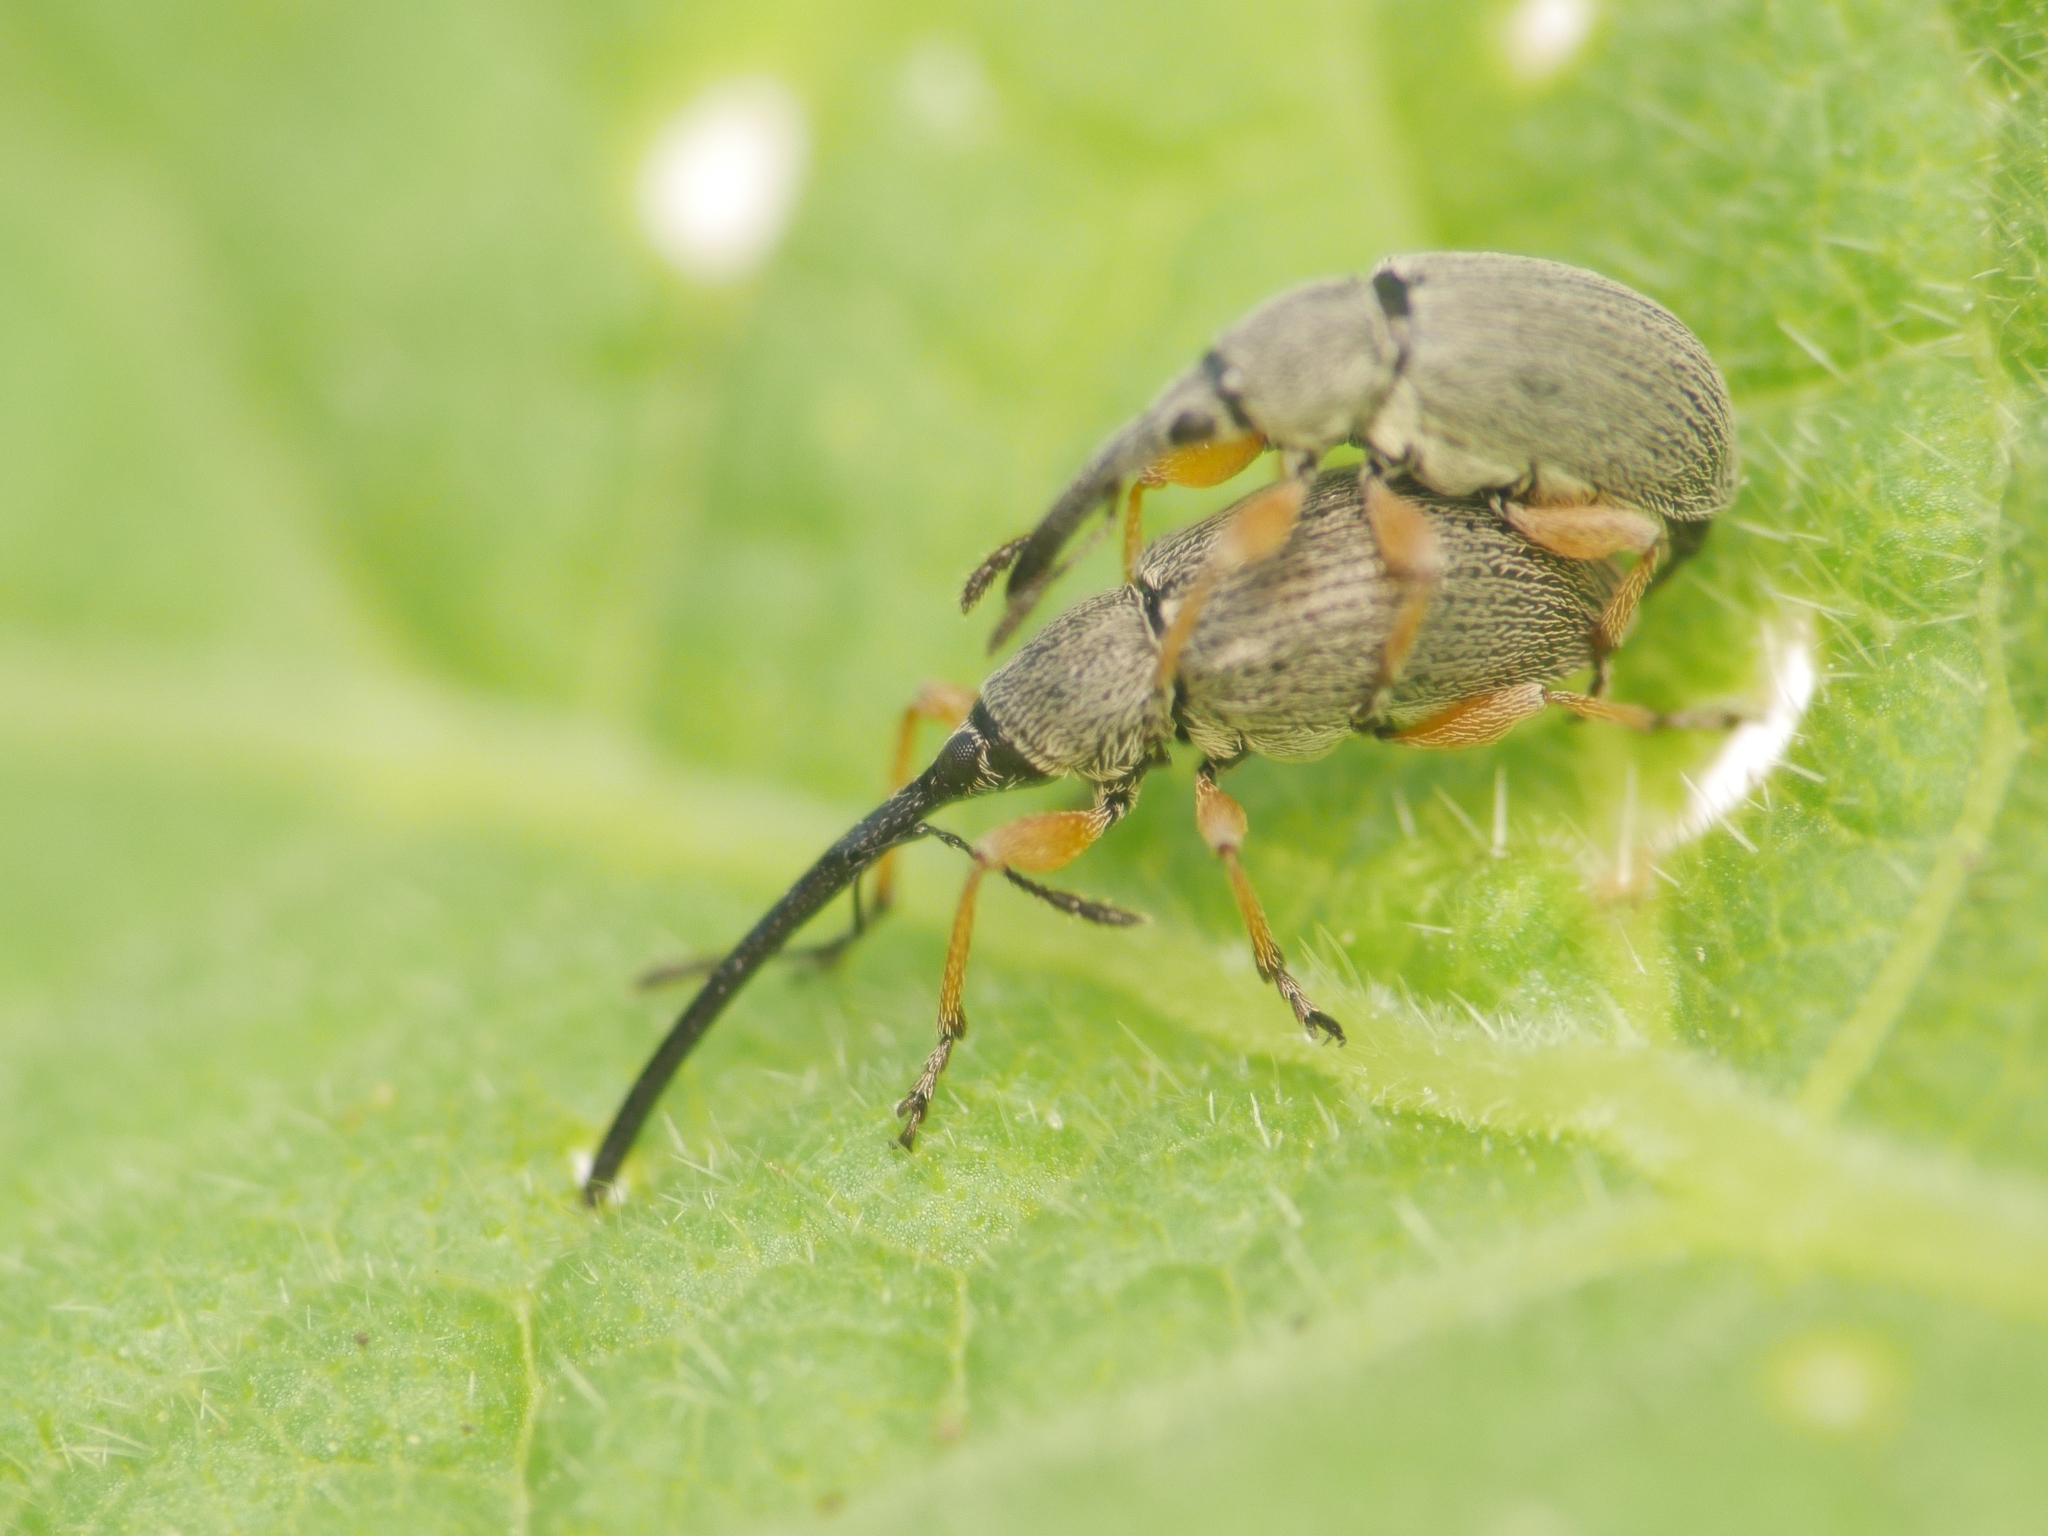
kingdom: Animalia
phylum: Arthropoda
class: Insecta
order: Coleoptera
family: Brentidae
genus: Rhopalapion
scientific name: Rhopalapion longirostre
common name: Hollyhock weevil
